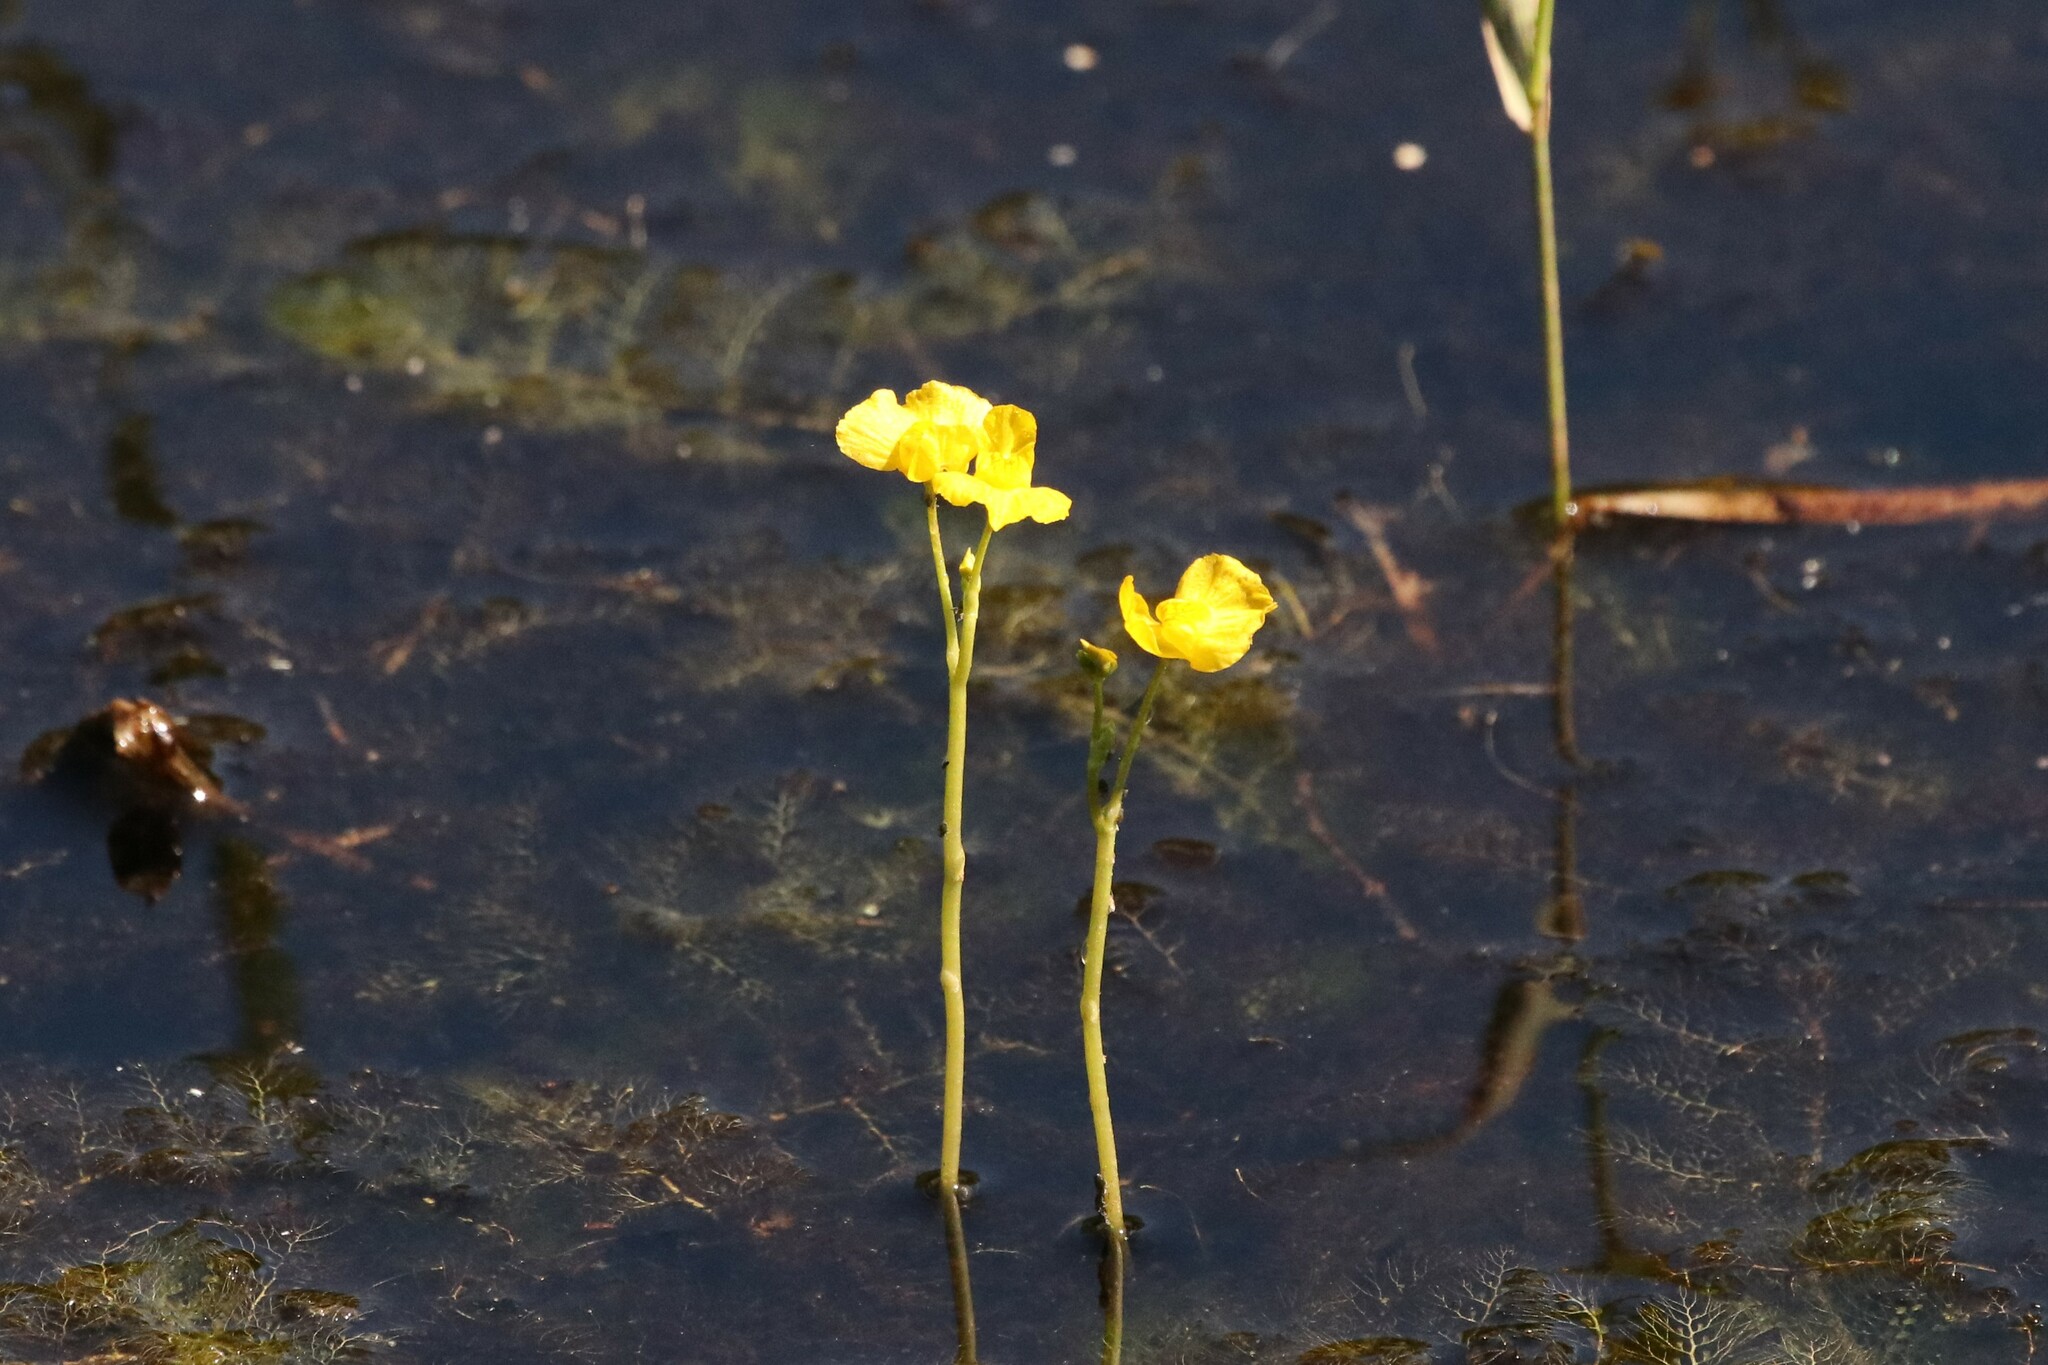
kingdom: Plantae
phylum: Tracheophyta
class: Magnoliopsida
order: Lamiales
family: Lentibulariaceae
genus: Utricularia
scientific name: Utricularia macrorhiza
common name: Common bladderwort
